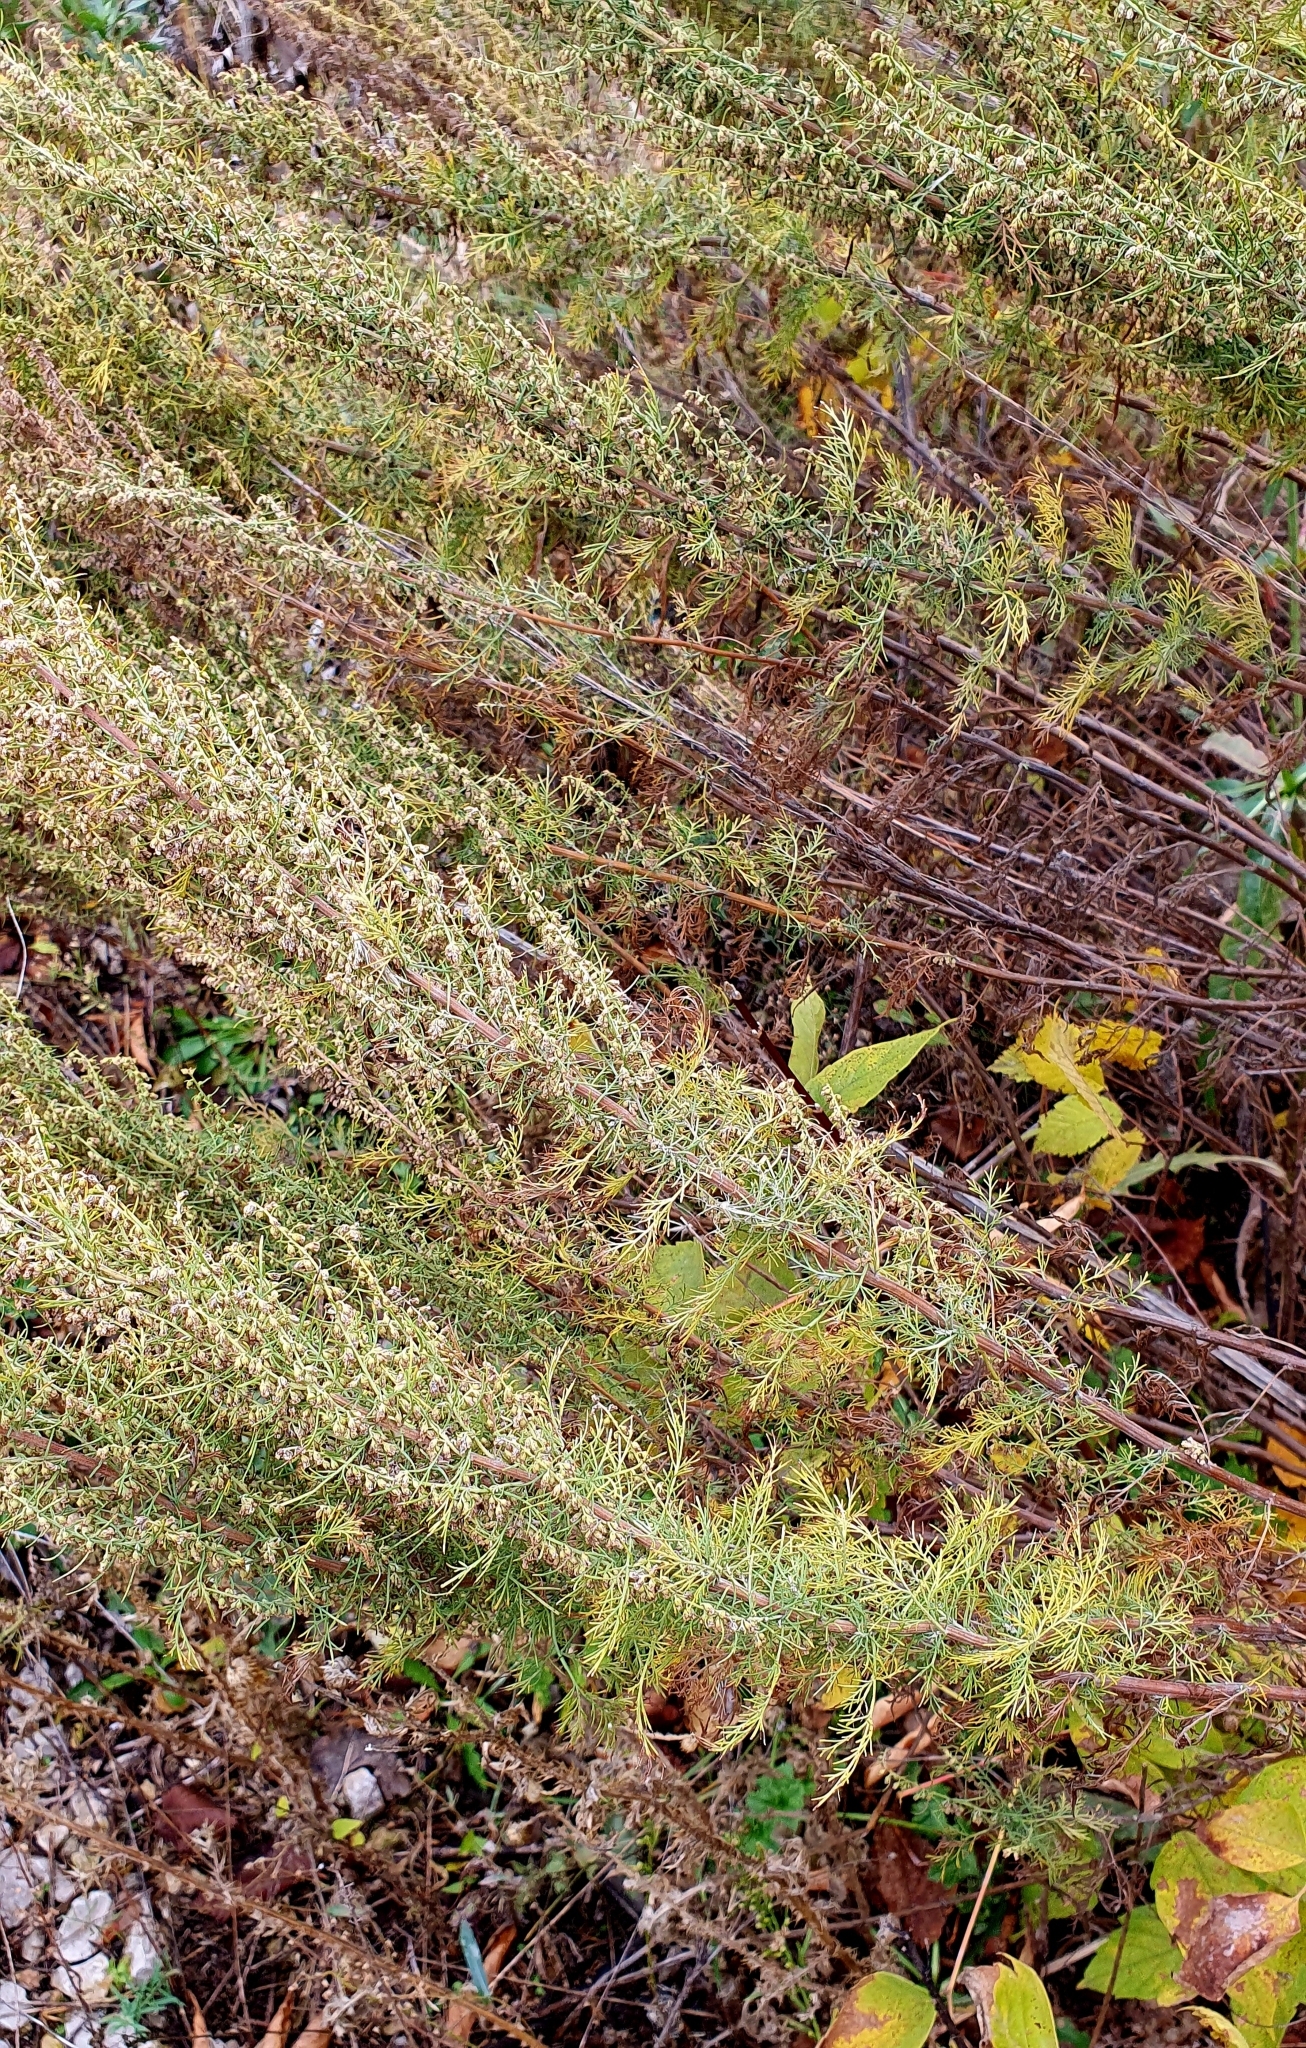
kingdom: Plantae
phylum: Tracheophyta
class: Magnoliopsida
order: Asterales
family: Asteraceae
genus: Artemisia
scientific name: Artemisia abrotanum
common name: Southernwood
